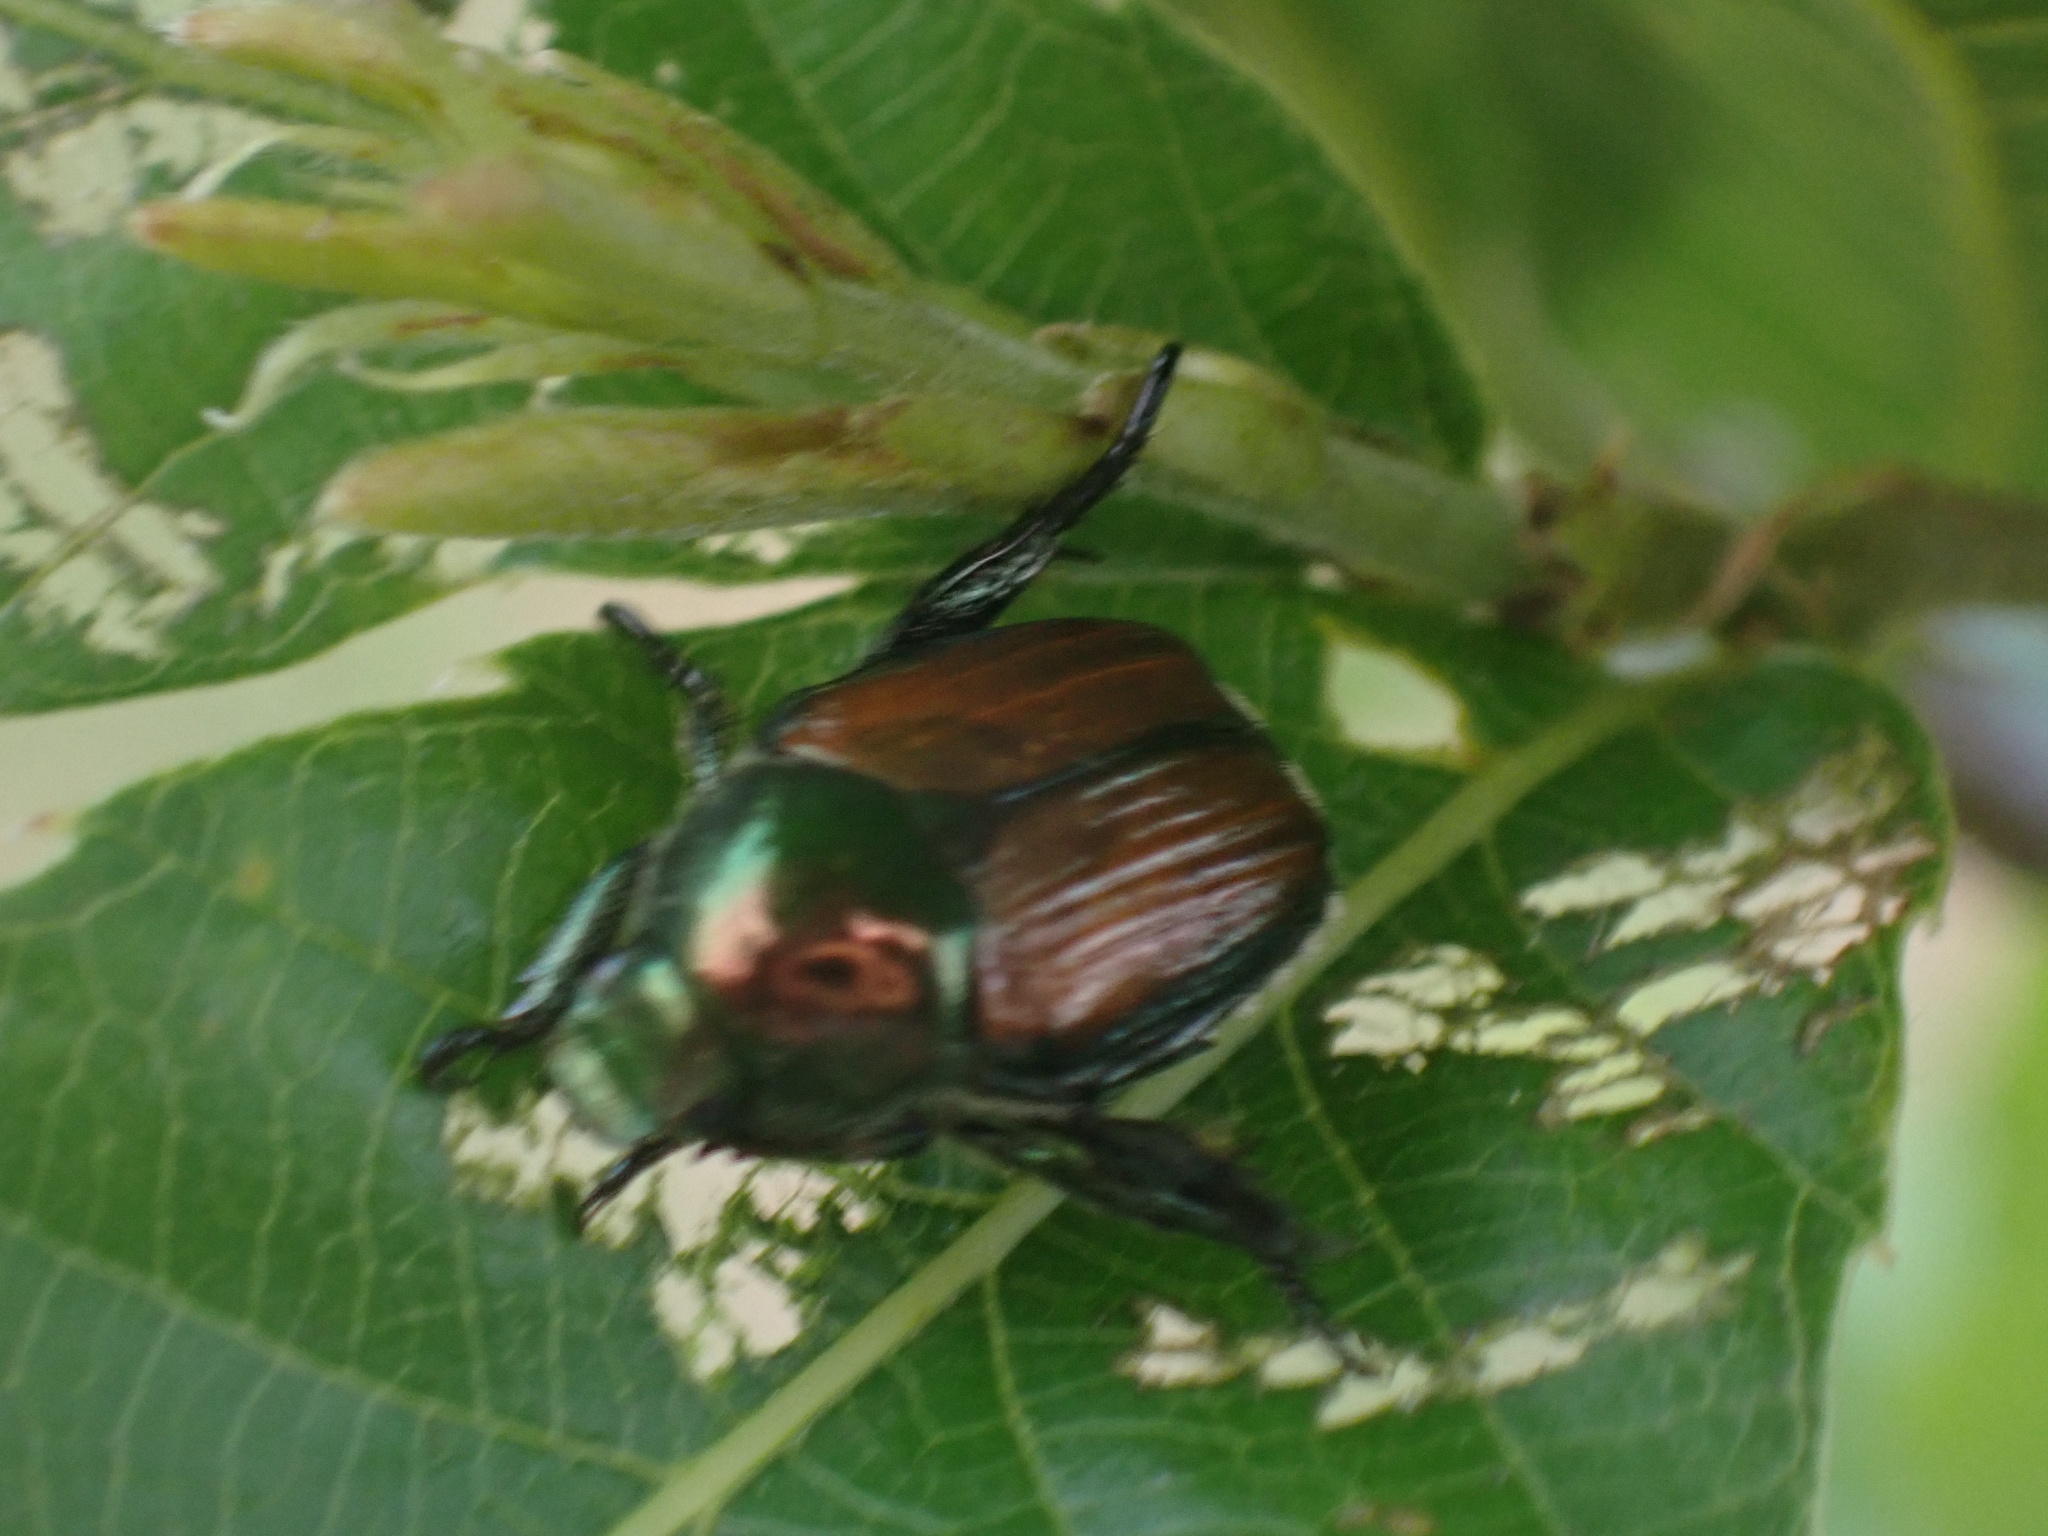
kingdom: Animalia
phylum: Arthropoda
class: Insecta
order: Coleoptera
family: Scarabaeidae
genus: Popillia
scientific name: Popillia japonica
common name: Japanese beetle
